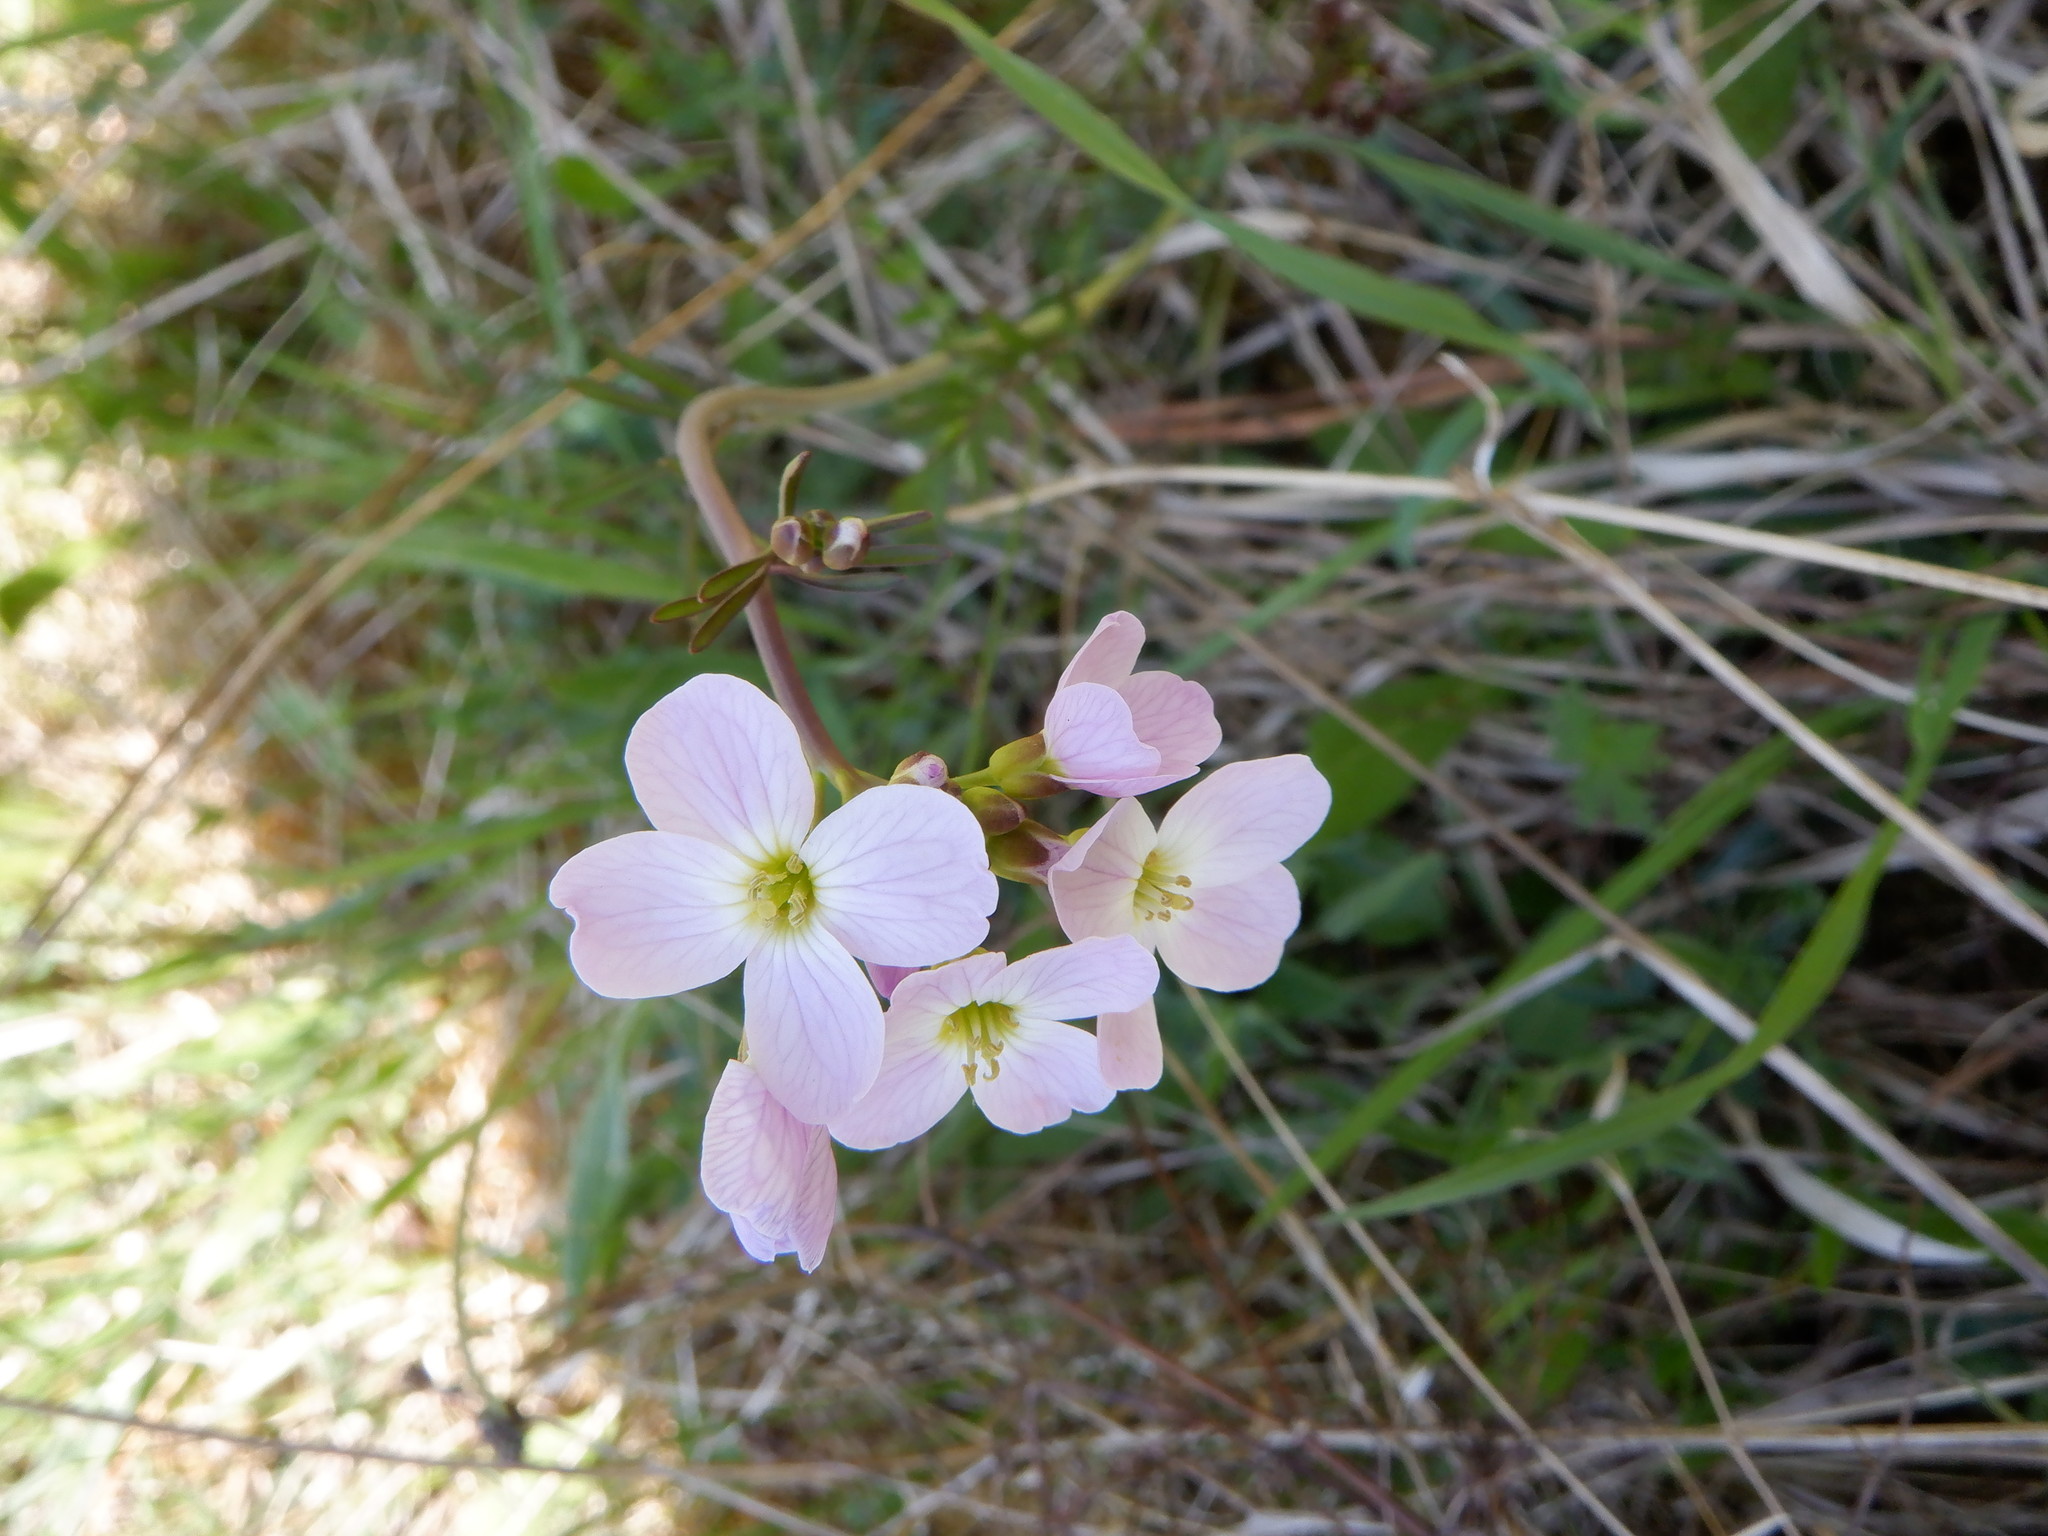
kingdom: Plantae
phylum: Tracheophyta
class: Magnoliopsida
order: Brassicales
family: Brassicaceae
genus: Cardamine
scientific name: Cardamine pratensis
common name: Cuckoo flower
